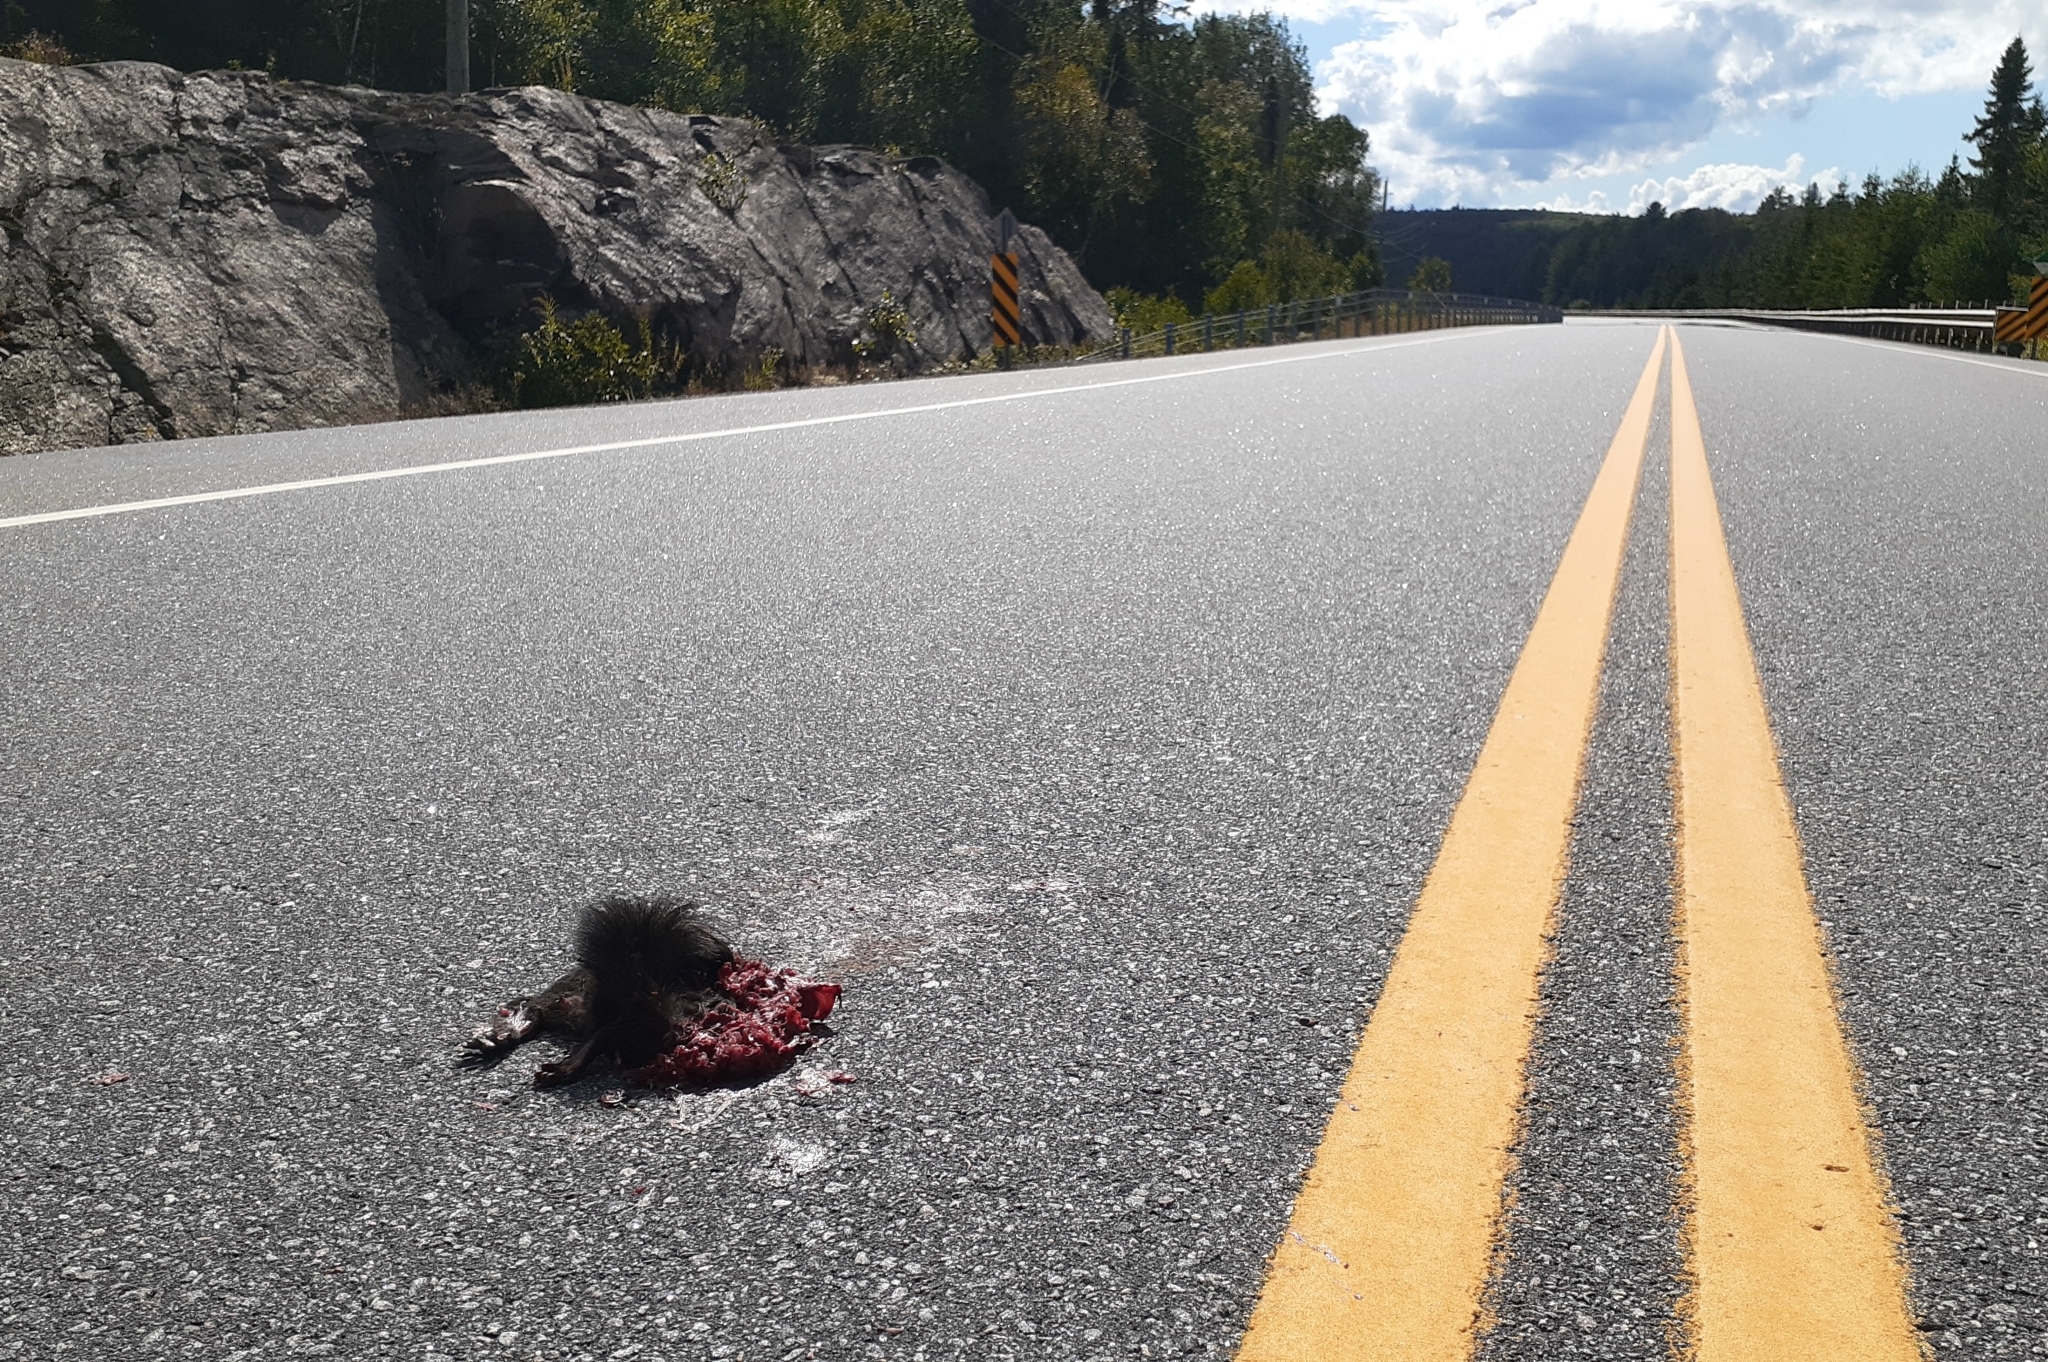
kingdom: Animalia
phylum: Chordata
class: Mammalia
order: Rodentia
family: Sciuridae
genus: Sciurus
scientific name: Sciurus carolinensis
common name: Eastern gray squirrel
